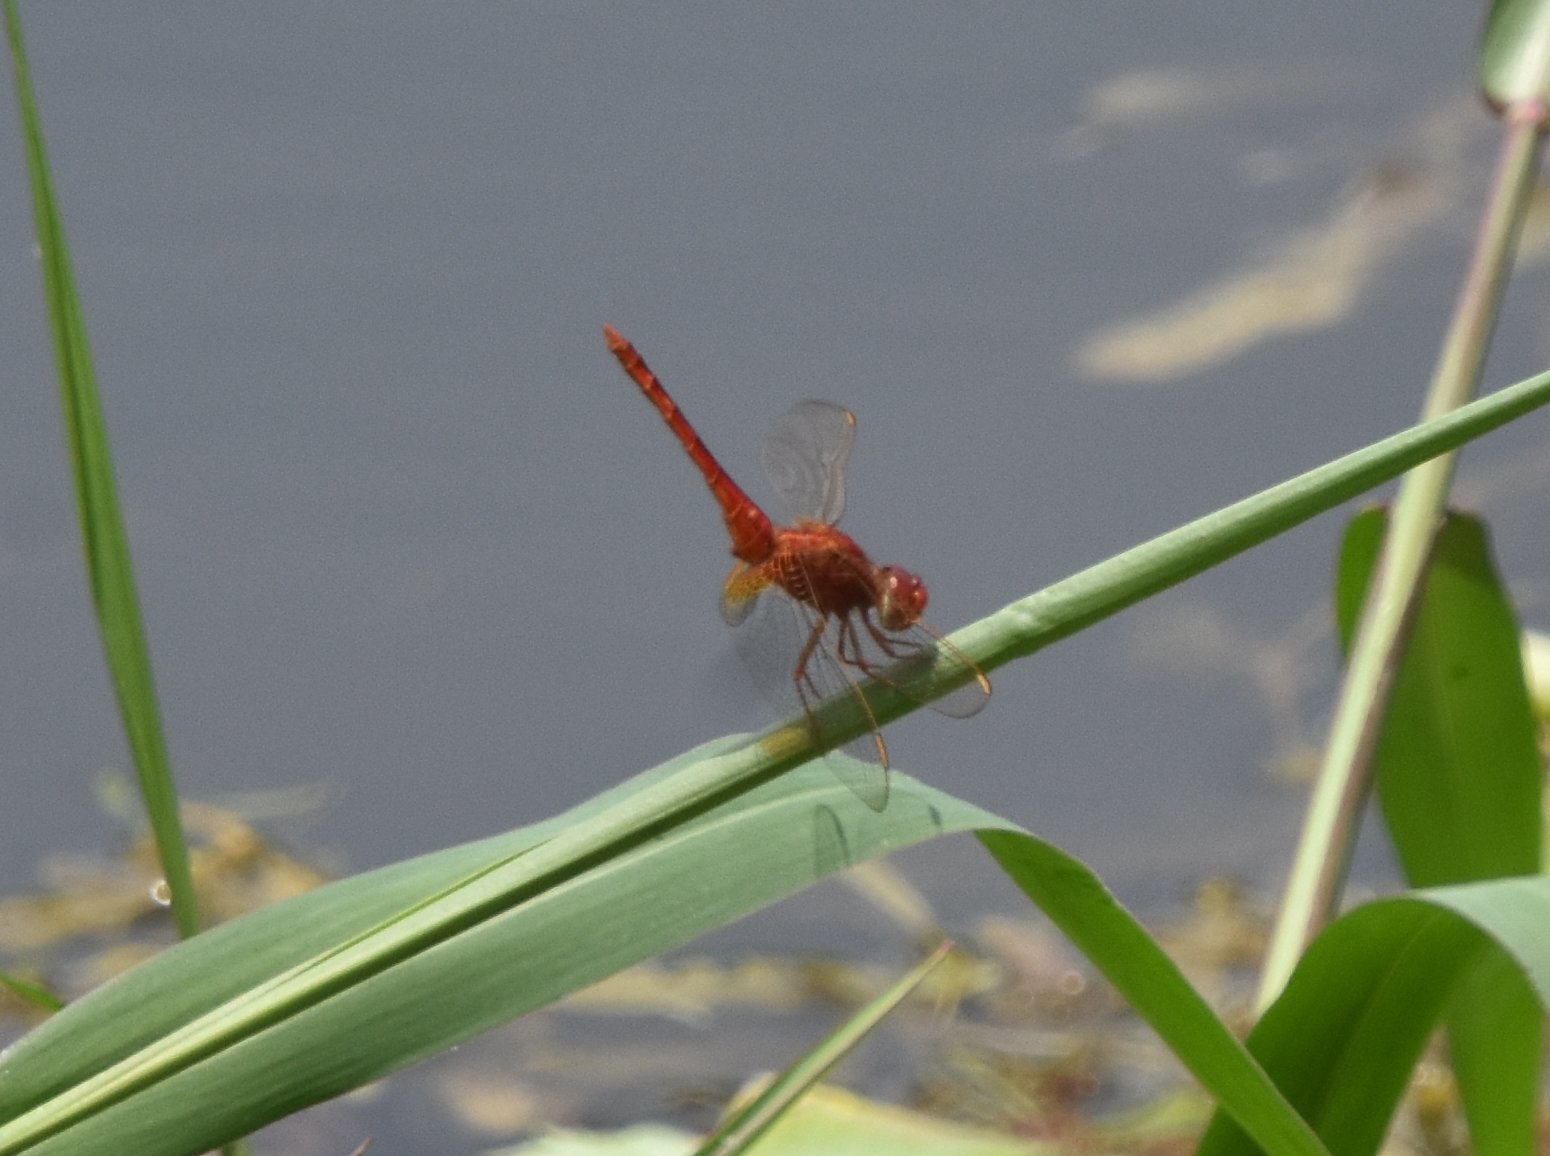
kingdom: Animalia
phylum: Arthropoda
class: Insecta
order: Odonata
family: Libellulidae
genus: Crocothemis
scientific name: Crocothemis servilia
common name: Scarlet skimmer
